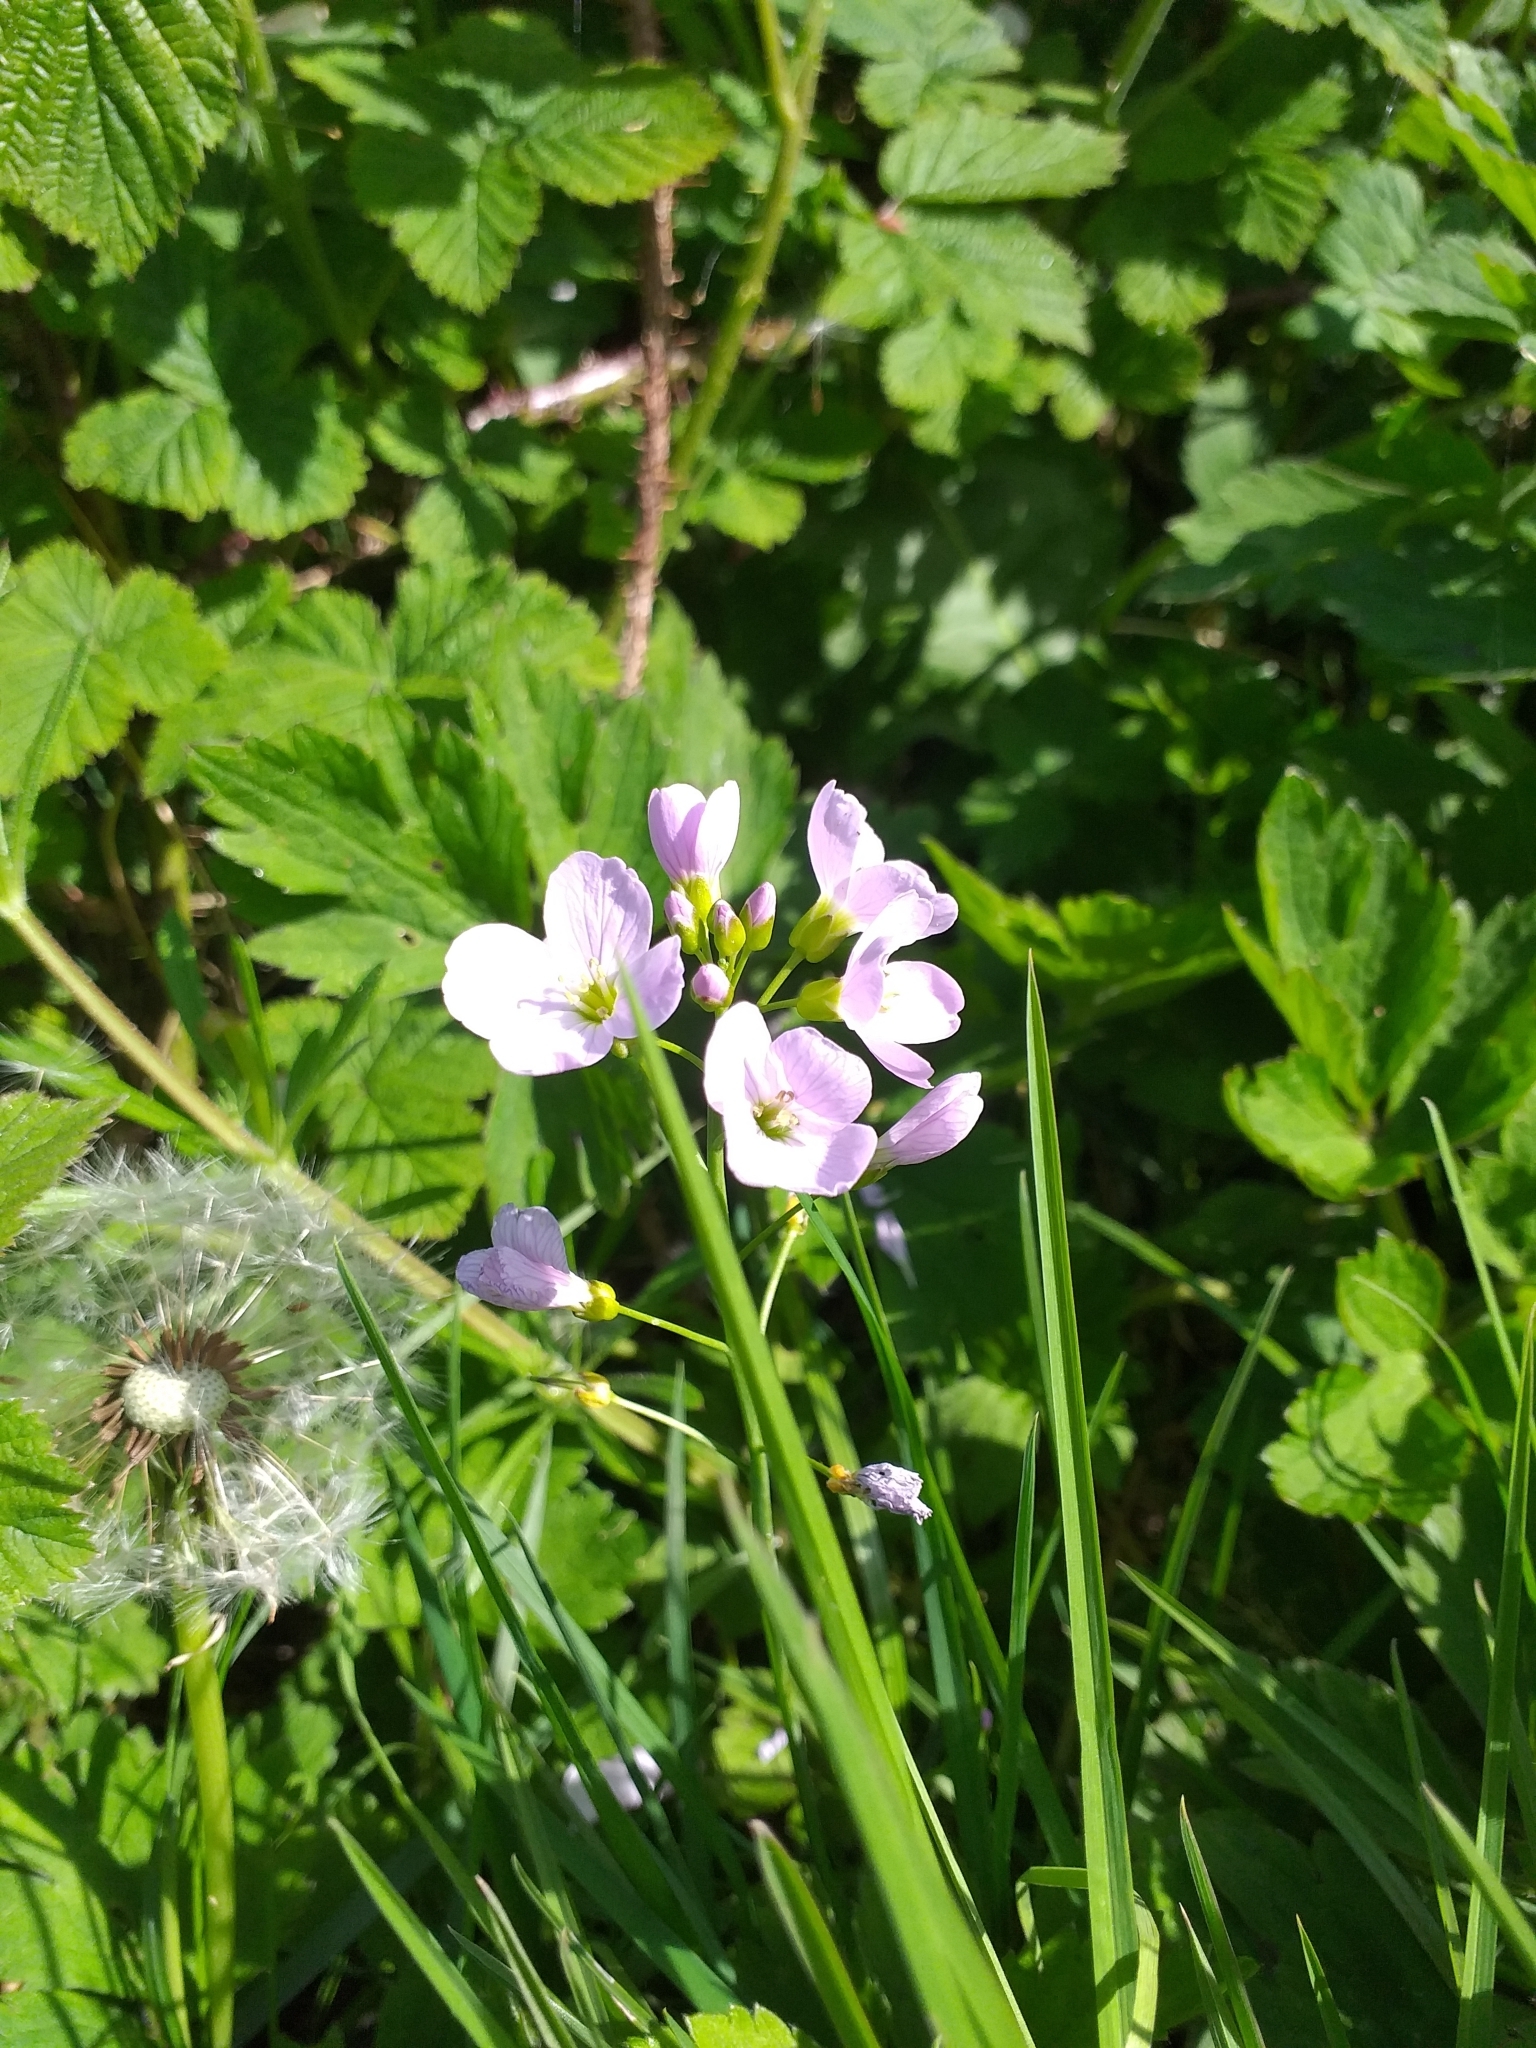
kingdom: Plantae
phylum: Tracheophyta
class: Magnoliopsida
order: Brassicales
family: Brassicaceae
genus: Cardamine
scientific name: Cardamine pratensis
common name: Cuckoo flower
